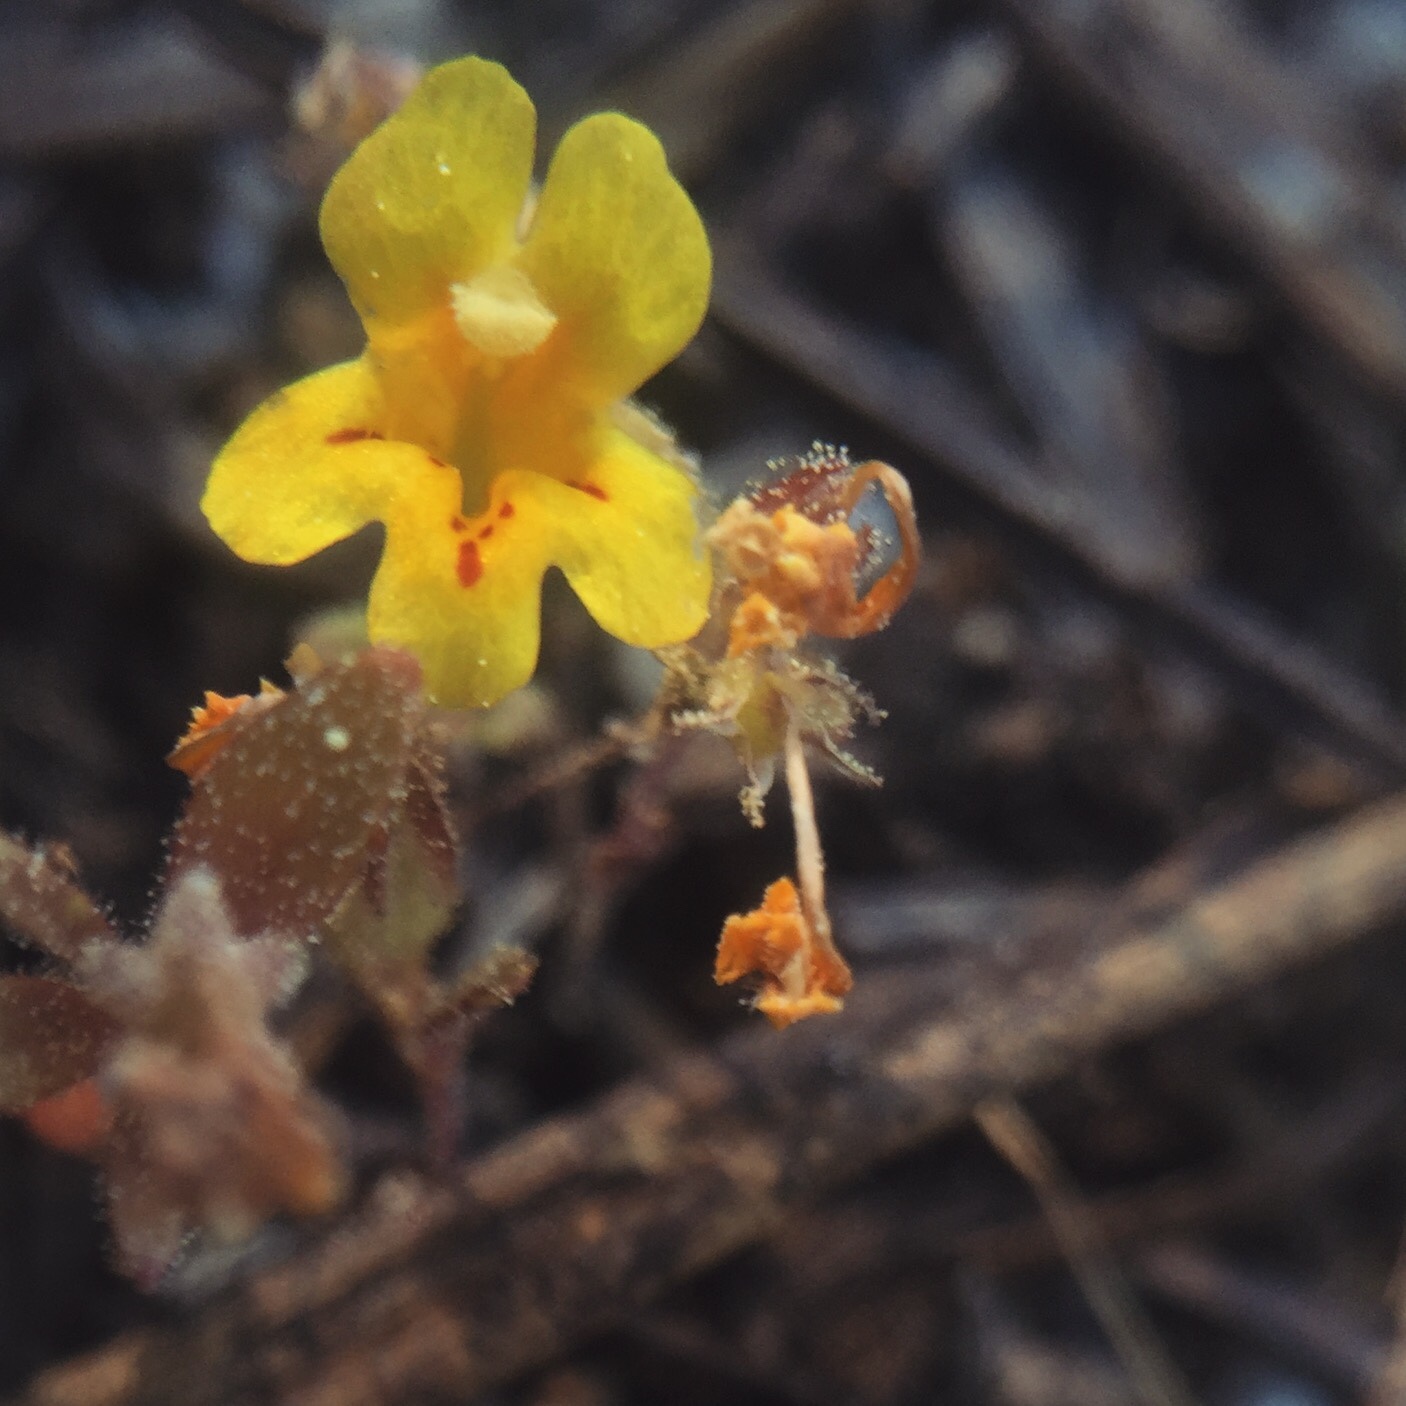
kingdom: Plantae
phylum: Tracheophyta
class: Magnoliopsida
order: Lamiales
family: Phrymaceae
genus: Diplacus
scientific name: Diplacus mephiticus
